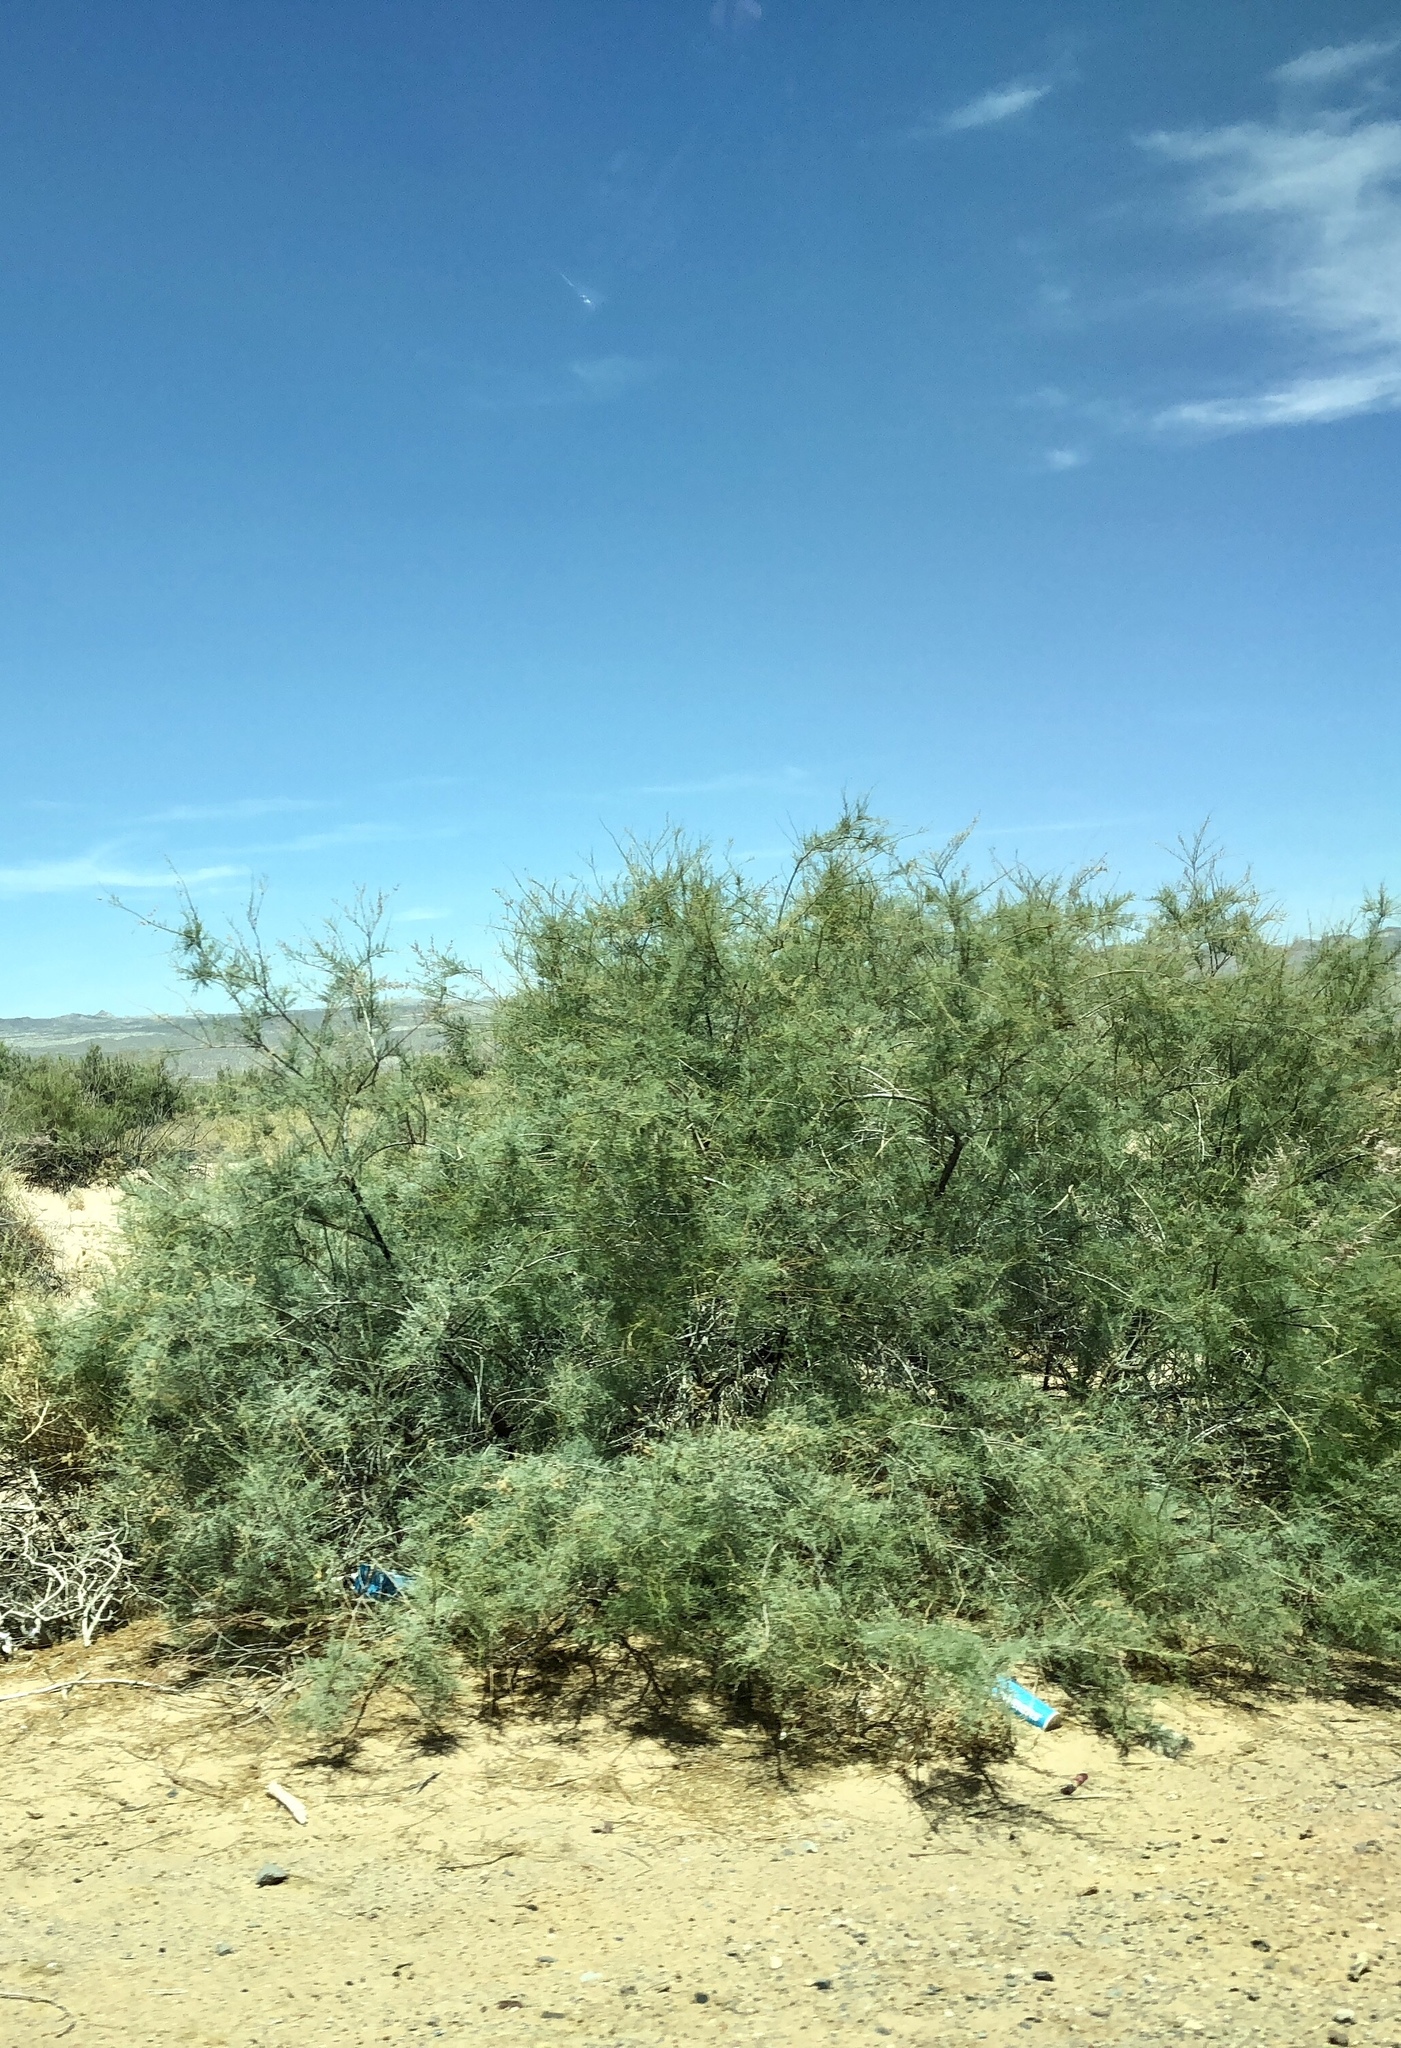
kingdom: Plantae
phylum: Tracheophyta
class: Magnoliopsida
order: Caryophyllales
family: Tamaricaceae
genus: Tamarix
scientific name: Tamarix ramosissima
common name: Pink tamarisk
